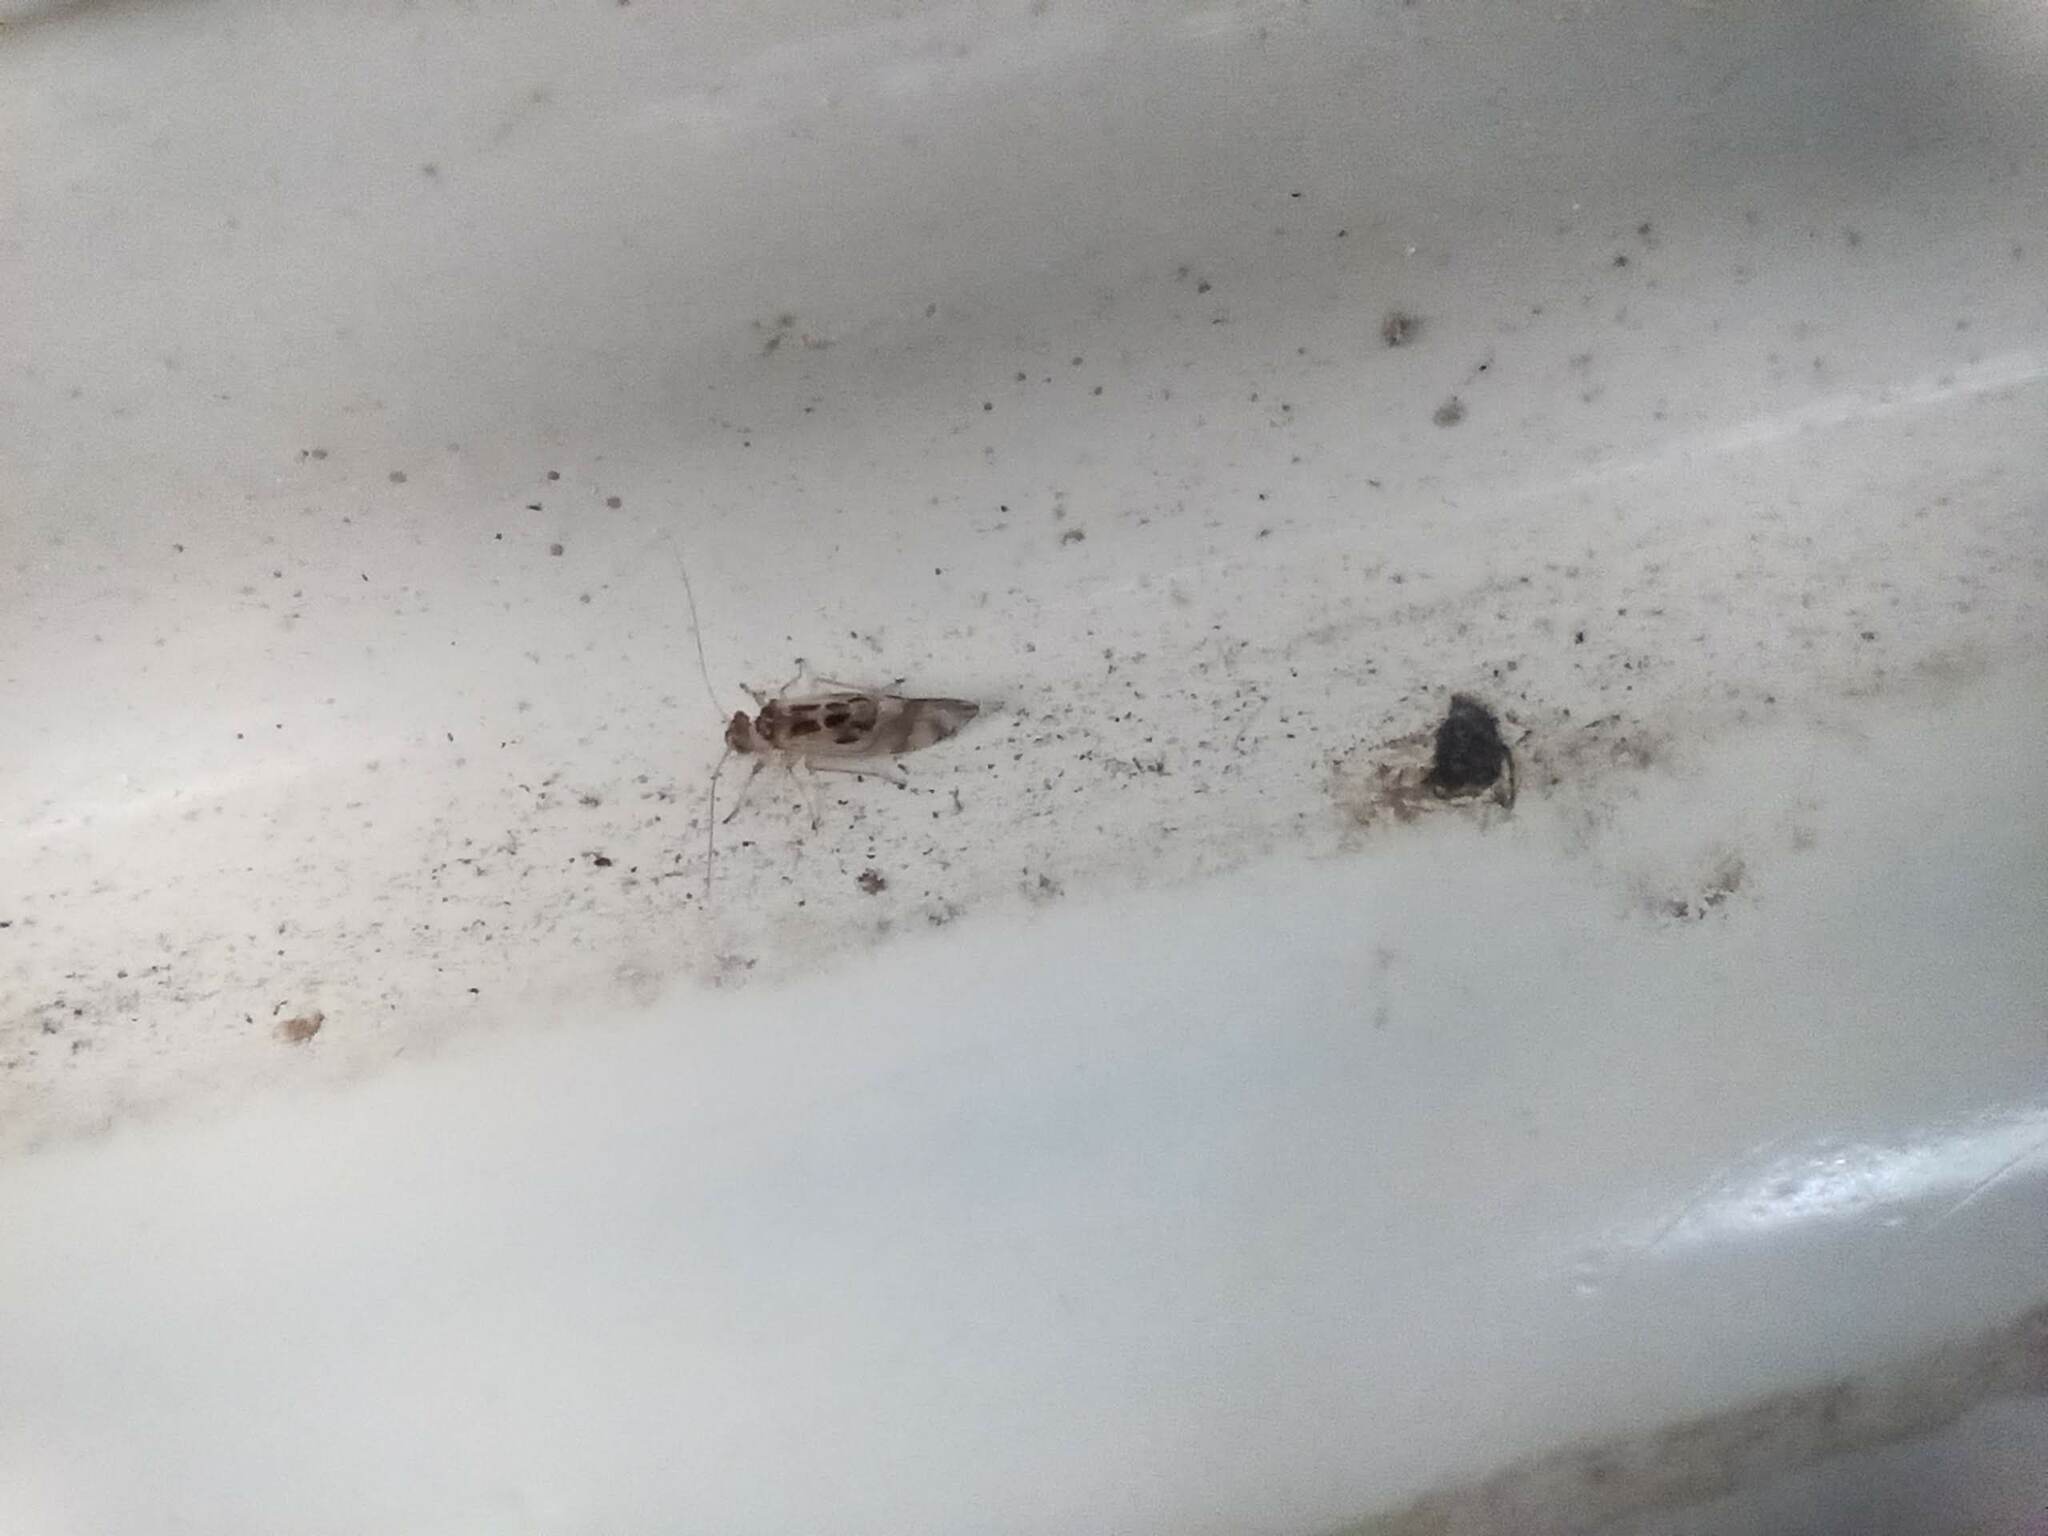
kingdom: Animalia
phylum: Arthropoda
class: Insecta
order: Psocodea
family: Stenopsocidae
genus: Graphopsocus
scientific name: Graphopsocus cruciatus
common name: Lizard bark louse
